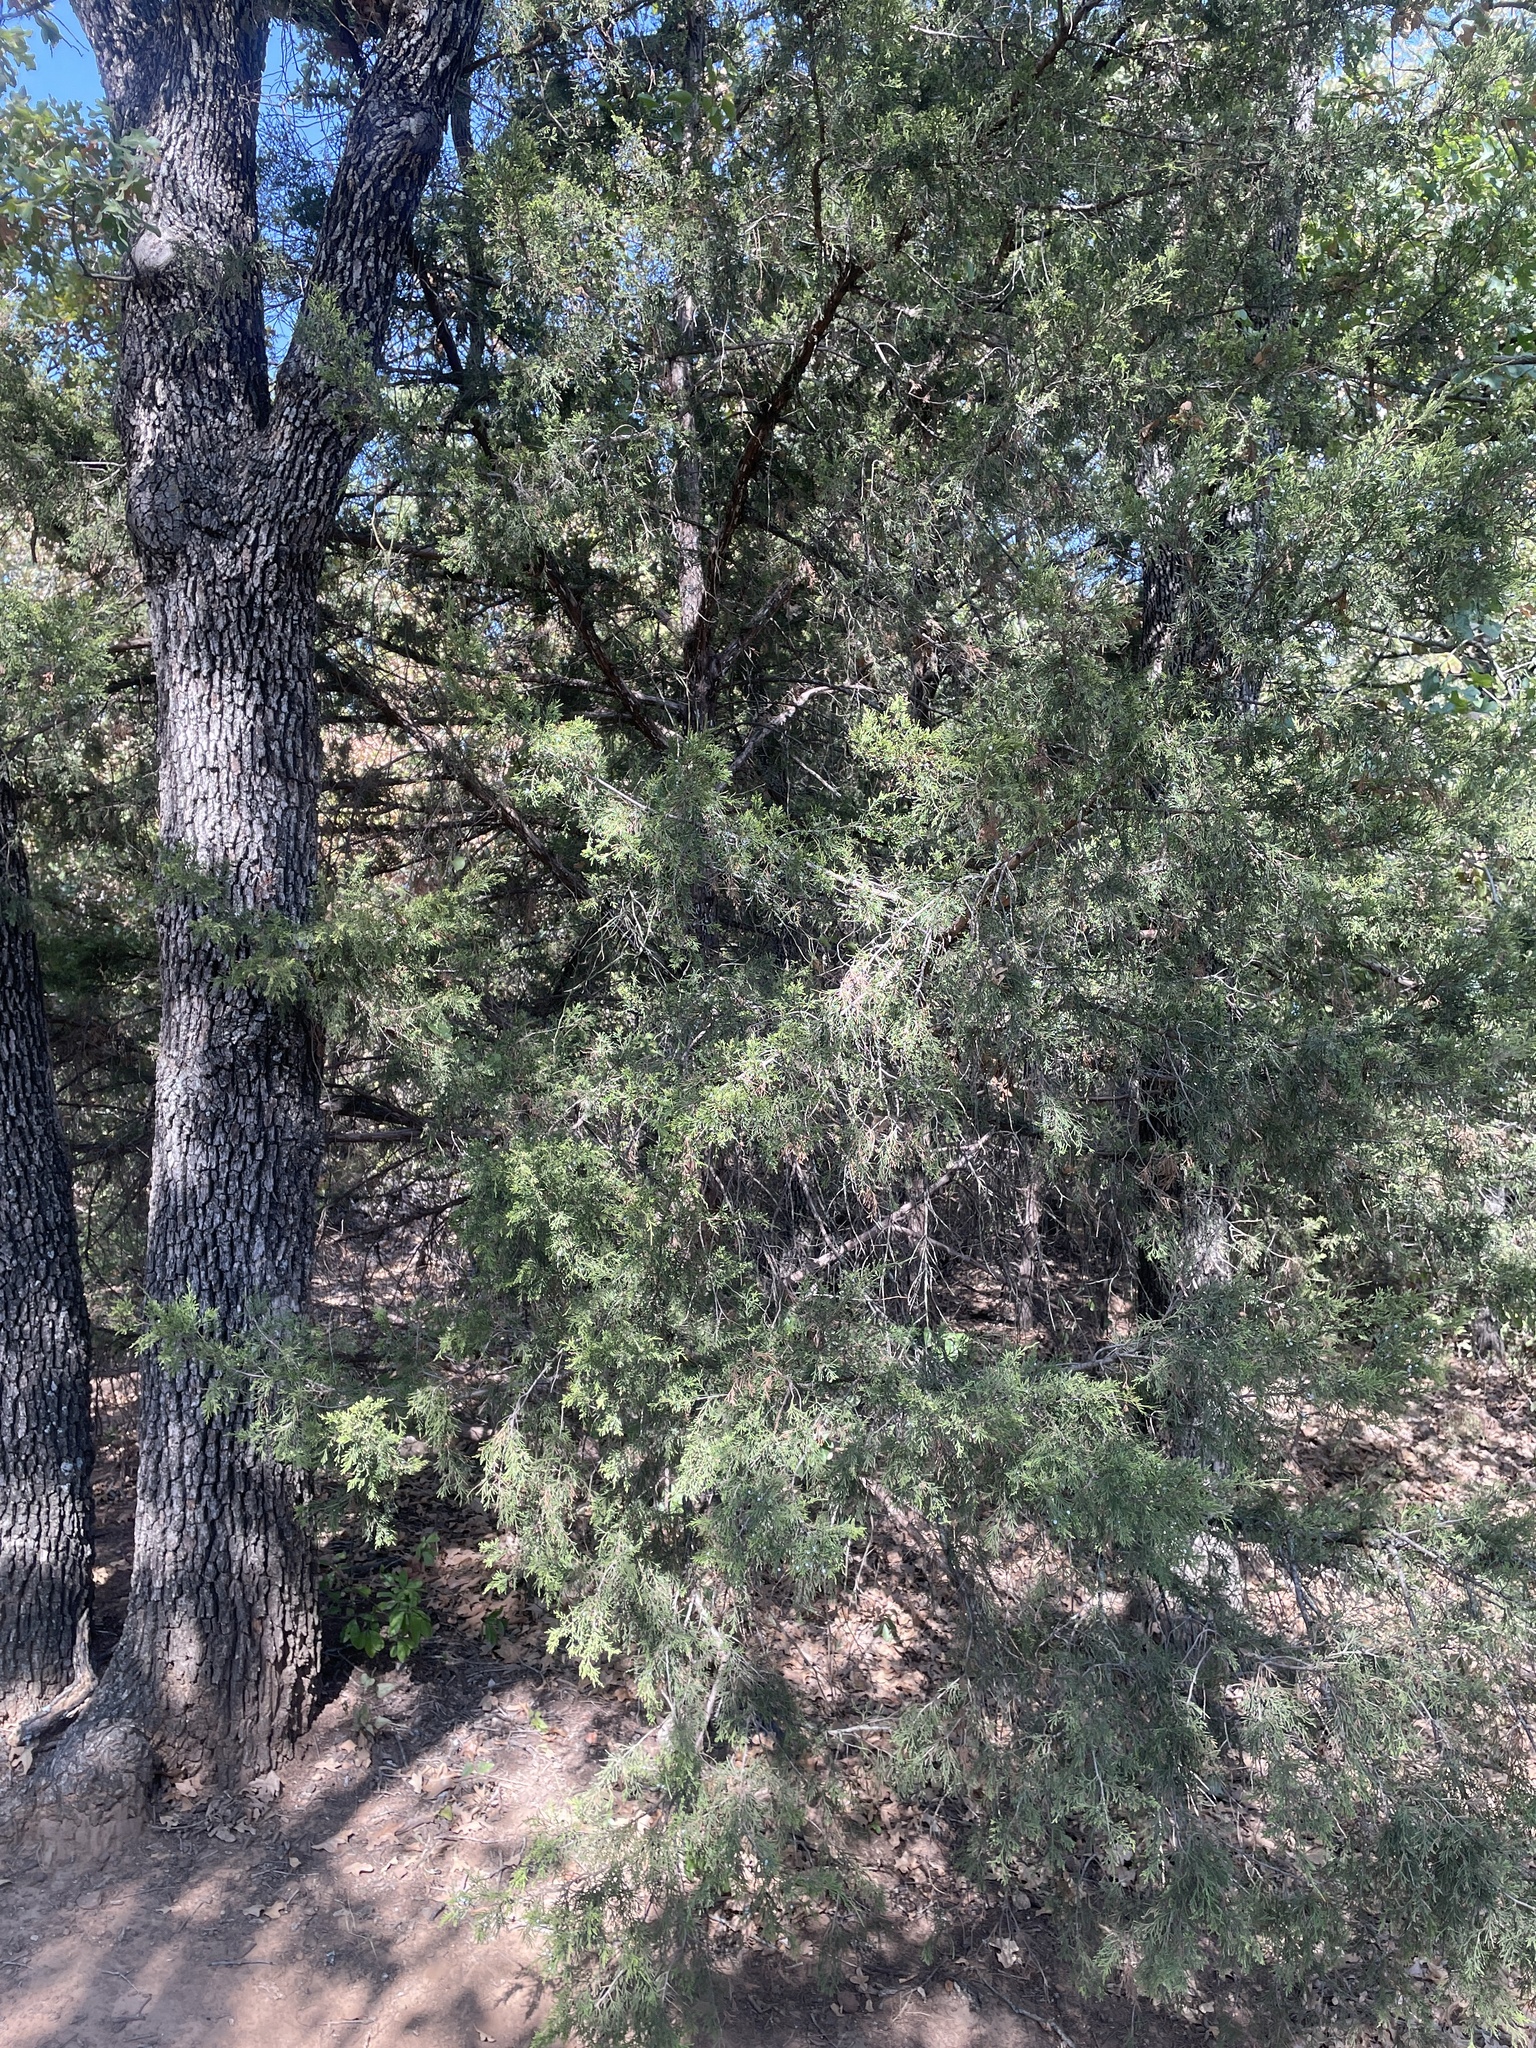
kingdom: Plantae
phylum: Tracheophyta
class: Pinopsida
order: Pinales
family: Cupressaceae
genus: Juniperus
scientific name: Juniperus virginiana
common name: Red juniper
